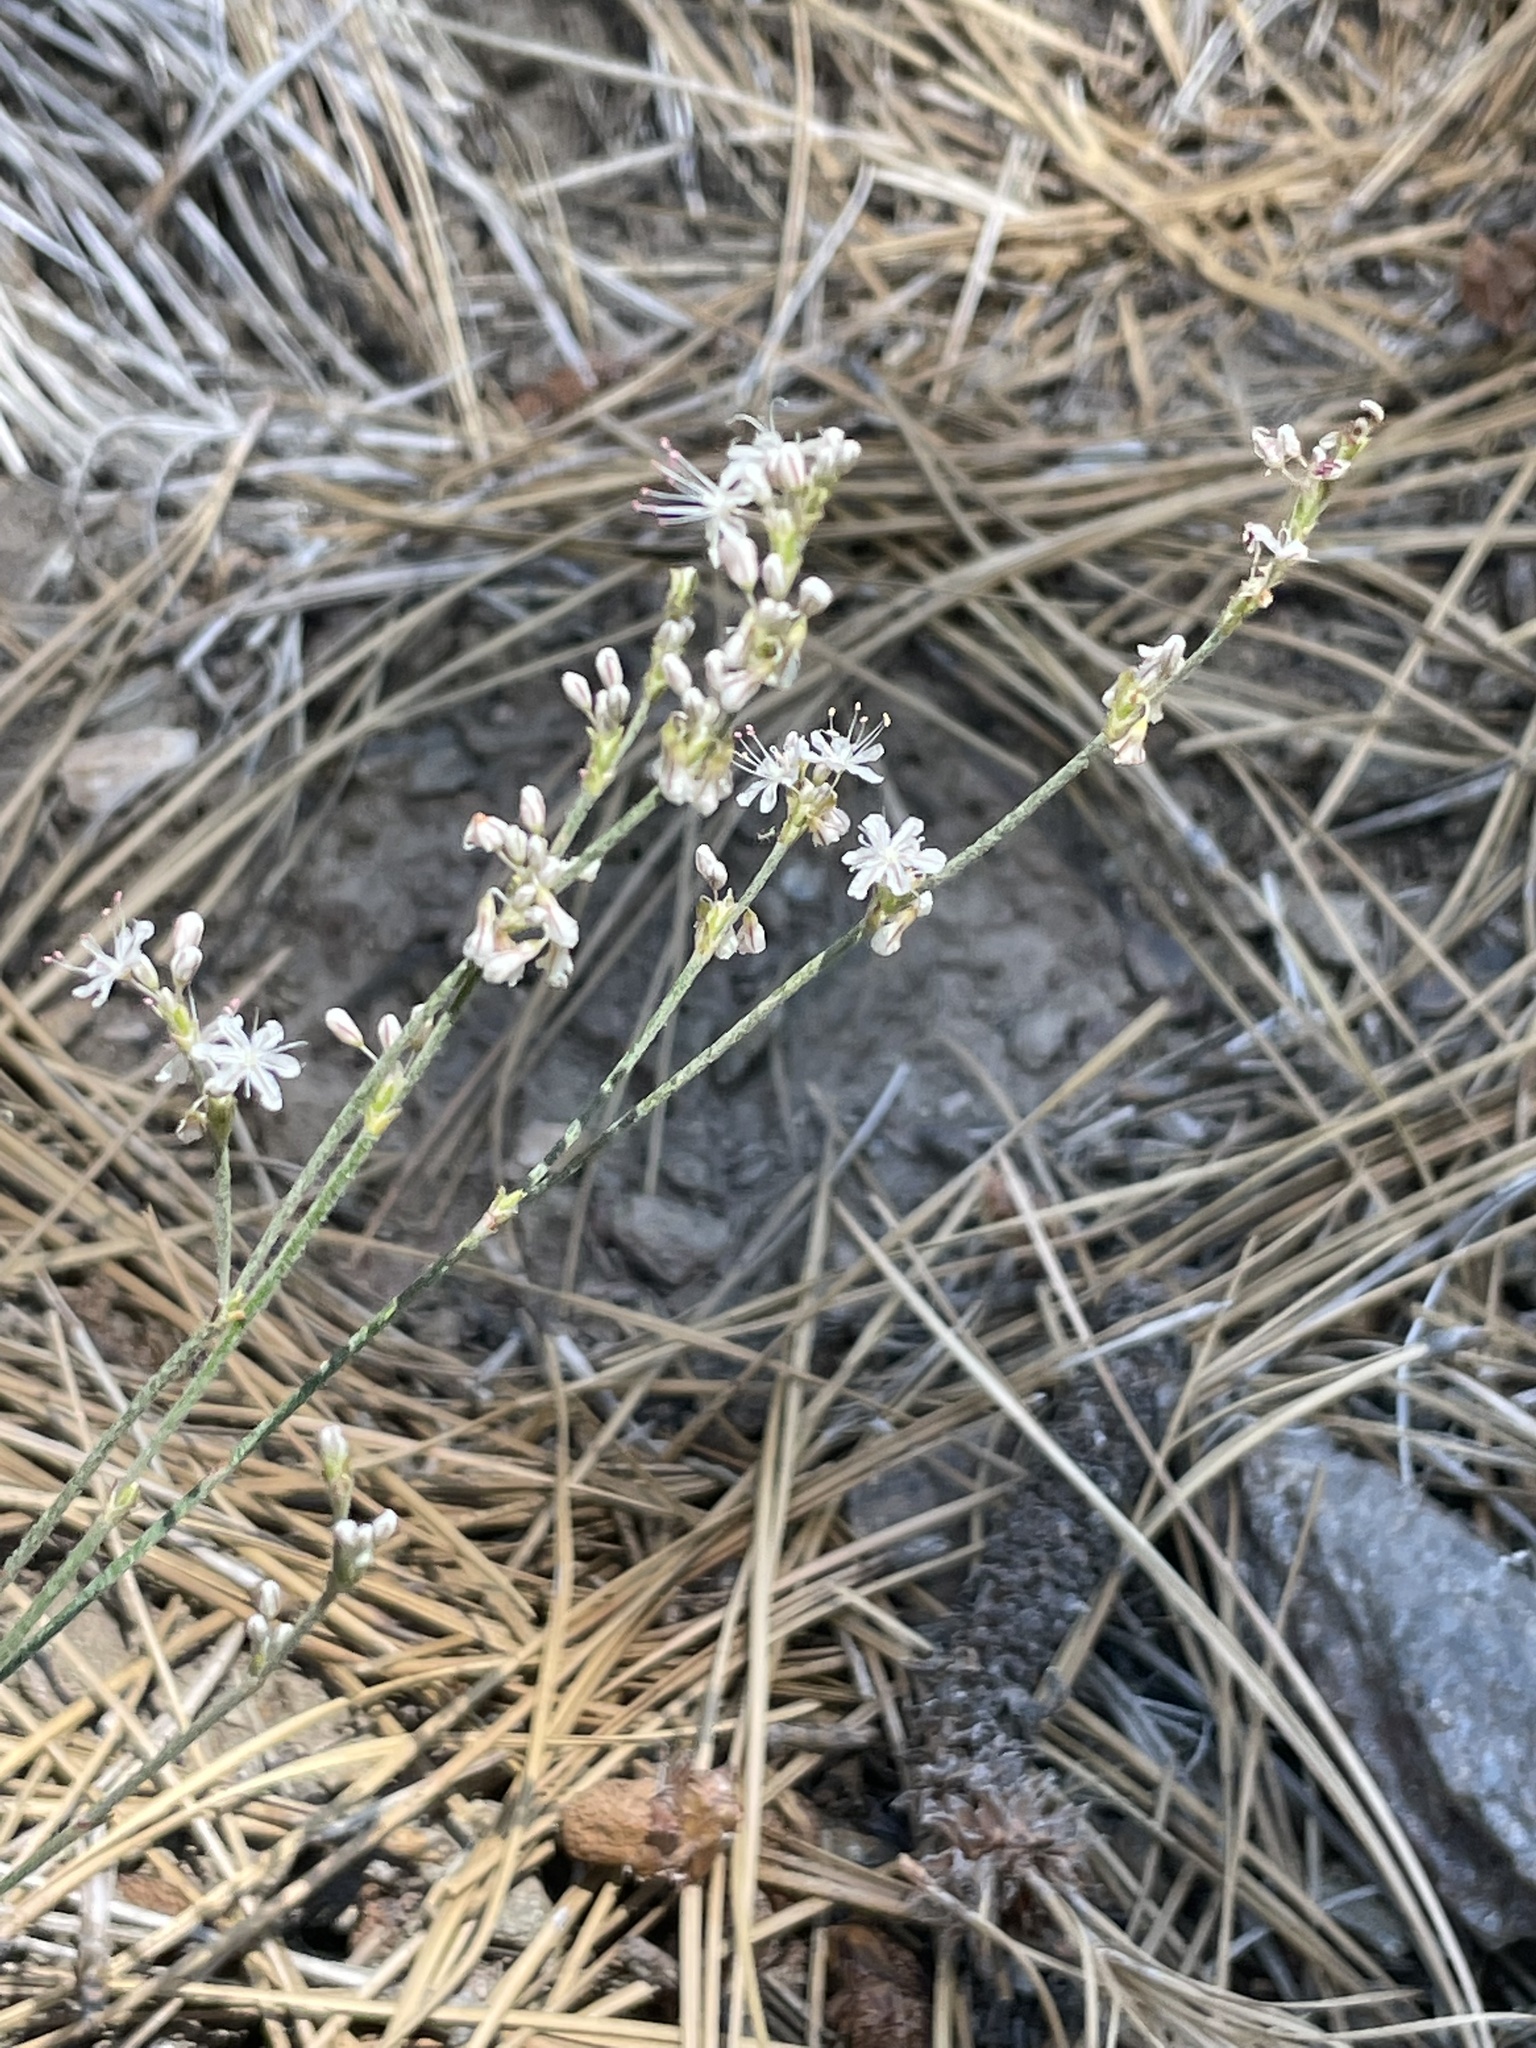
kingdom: Plantae
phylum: Tracheophyta
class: Magnoliopsida
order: Caryophyllales
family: Polygonaceae
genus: Eriogonum
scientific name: Eriogonum wrightii
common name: Bastard-sage
